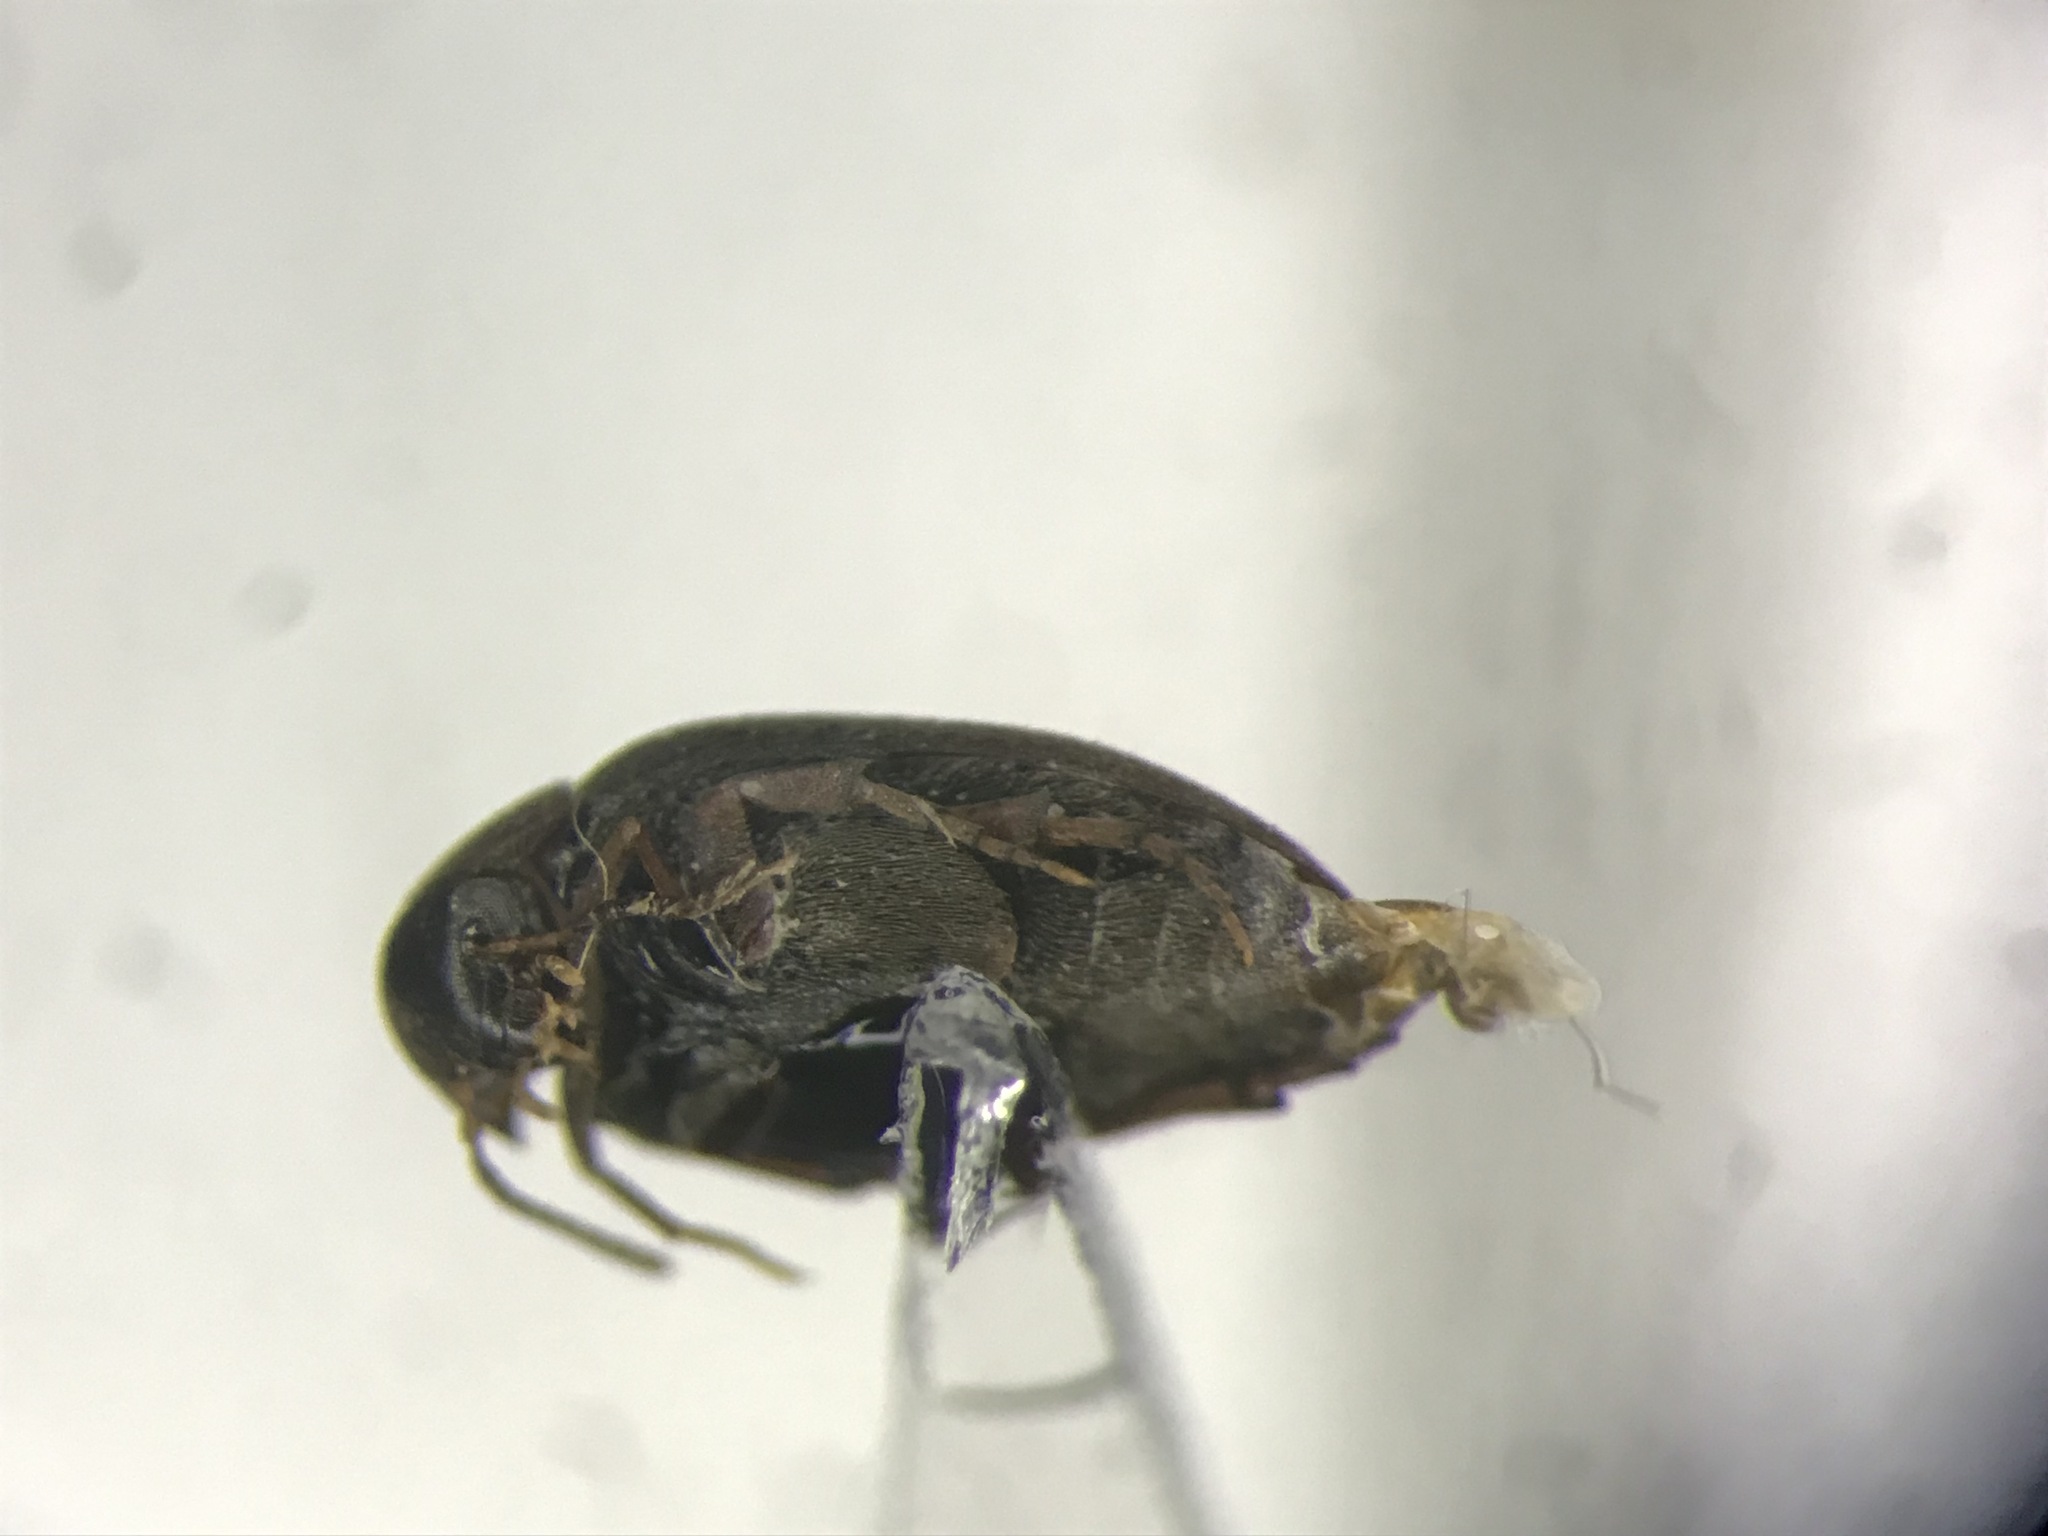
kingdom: Animalia
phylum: Arthropoda
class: Insecta
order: Coleoptera
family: Eucinetidae
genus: Eucinetus
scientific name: Eucinetus morio
